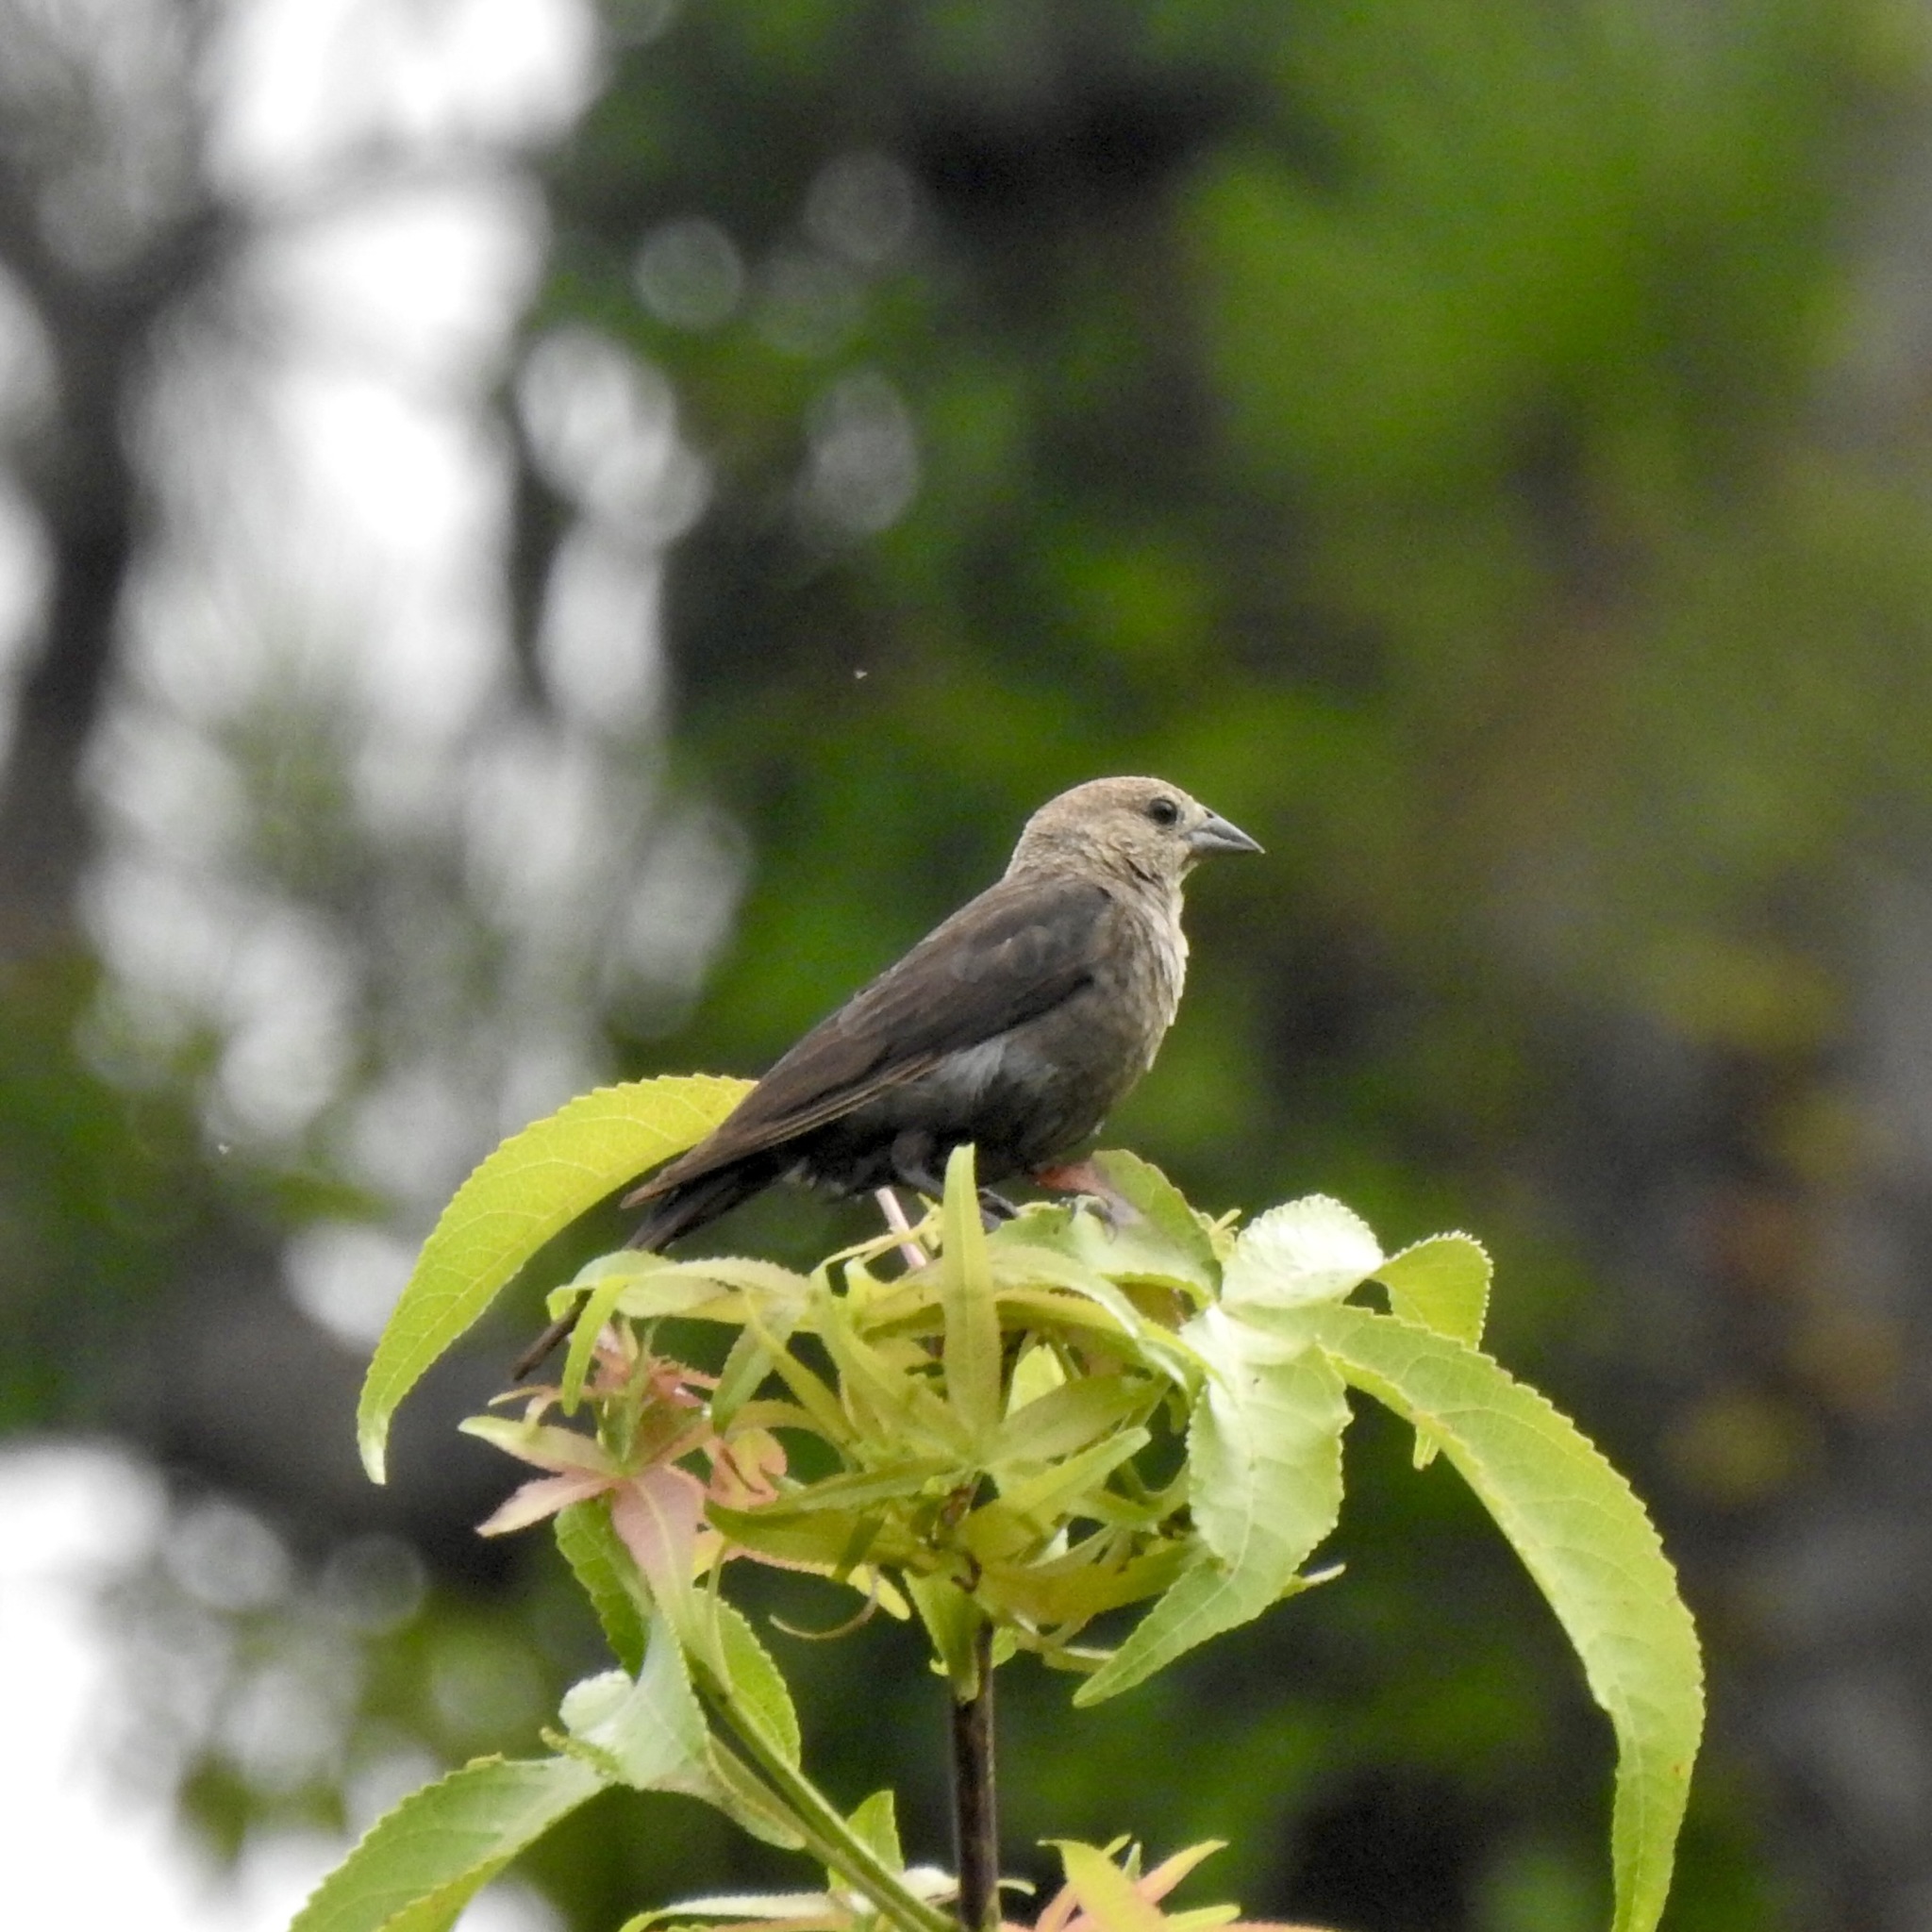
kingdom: Animalia
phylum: Chordata
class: Aves
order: Passeriformes
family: Icteridae
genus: Molothrus
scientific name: Molothrus ater
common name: Brown-headed cowbird
